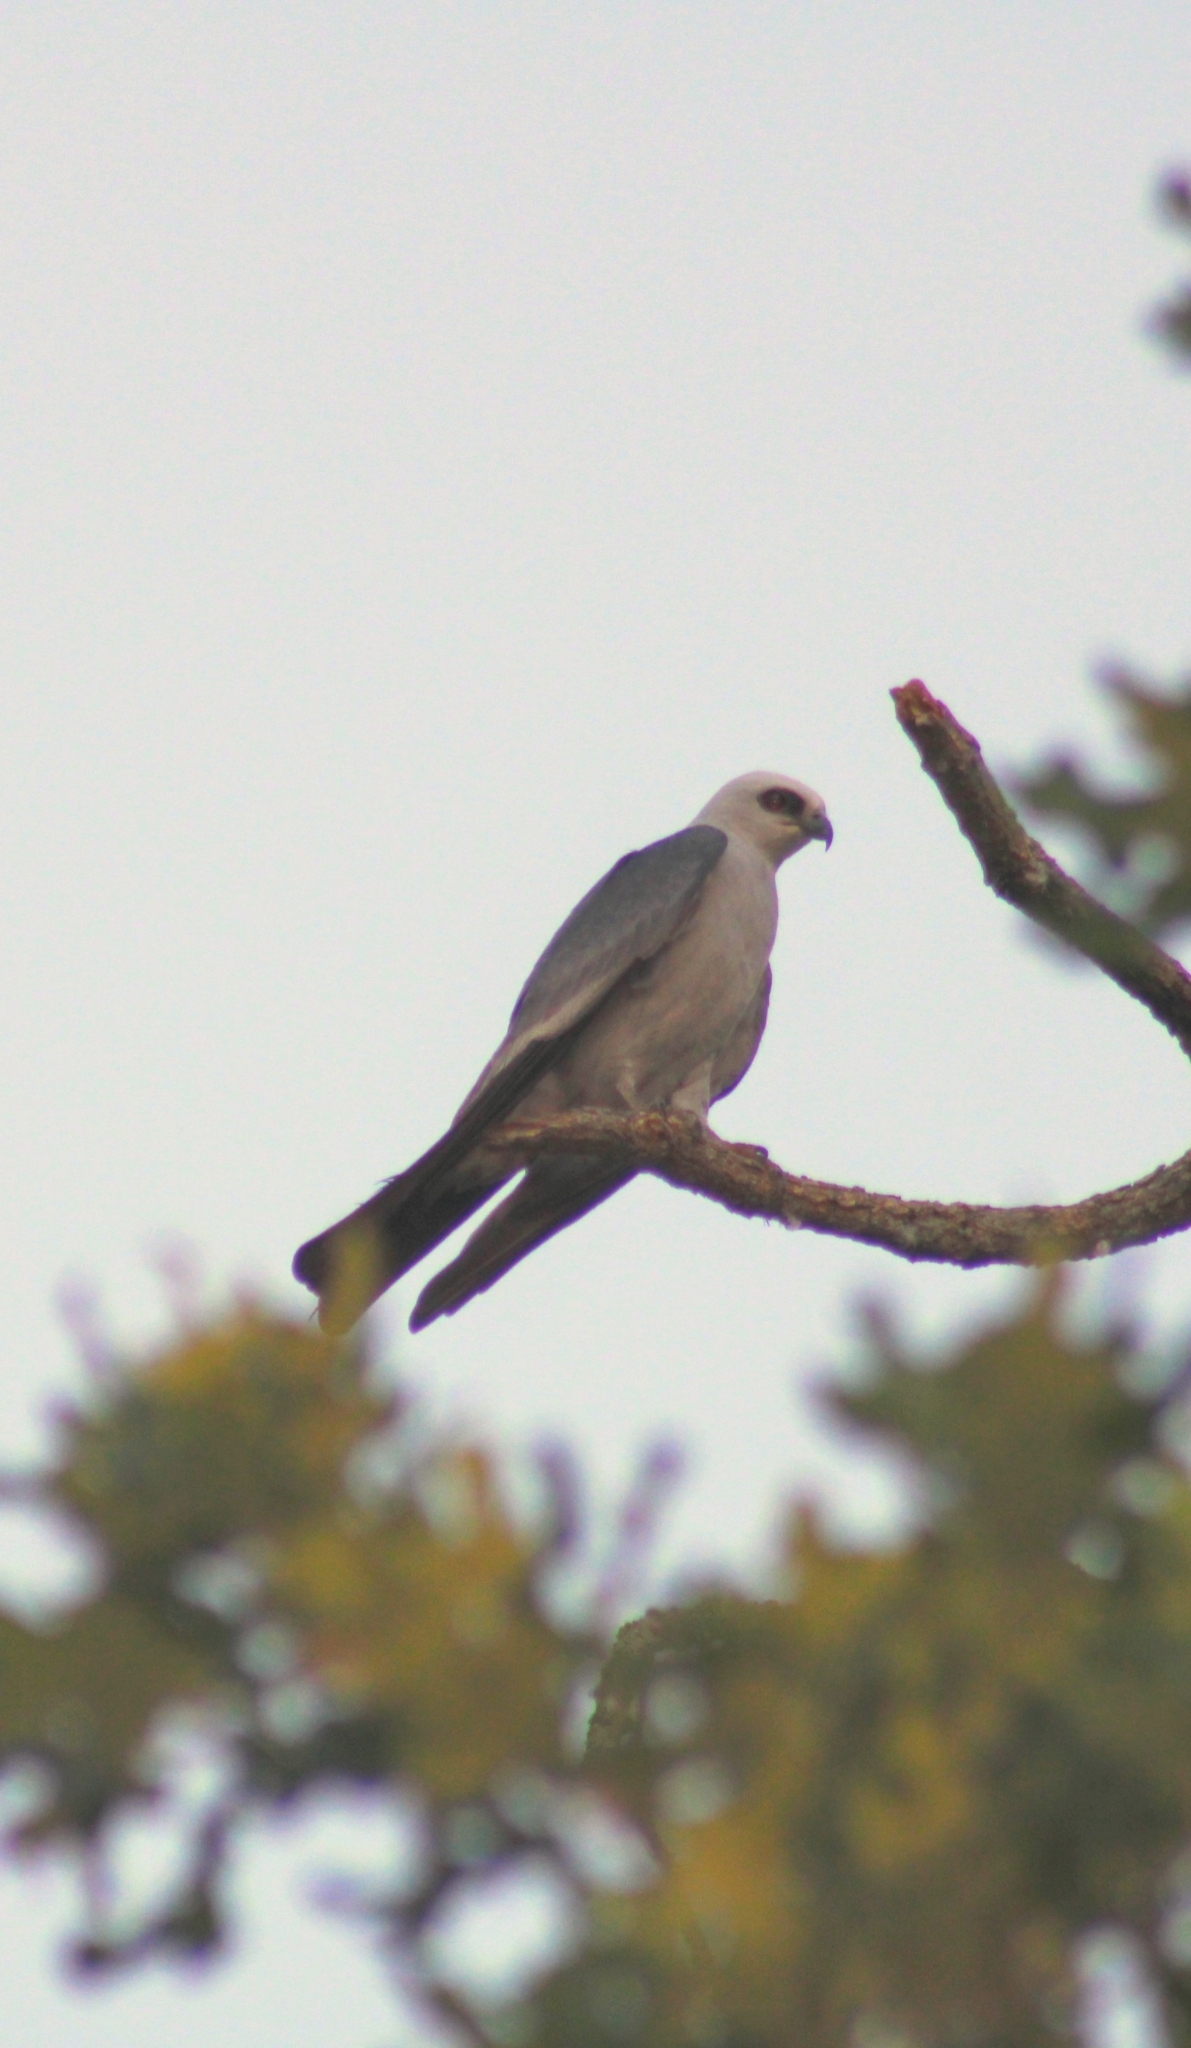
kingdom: Animalia
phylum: Chordata
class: Aves
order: Accipitriformes
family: Accipitridae
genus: Ictinia
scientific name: Ictinia mississippiensis
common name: Mississippi kite
